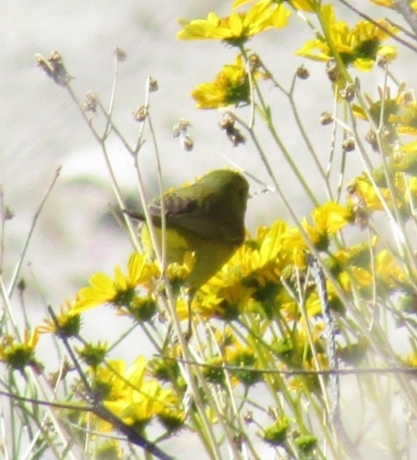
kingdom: Animalia
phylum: Chordata
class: Aves
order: Passeriformes
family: Parulidae
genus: Leiothlypis
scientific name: Leiothlypis celata
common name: Orange-crowned warbler
